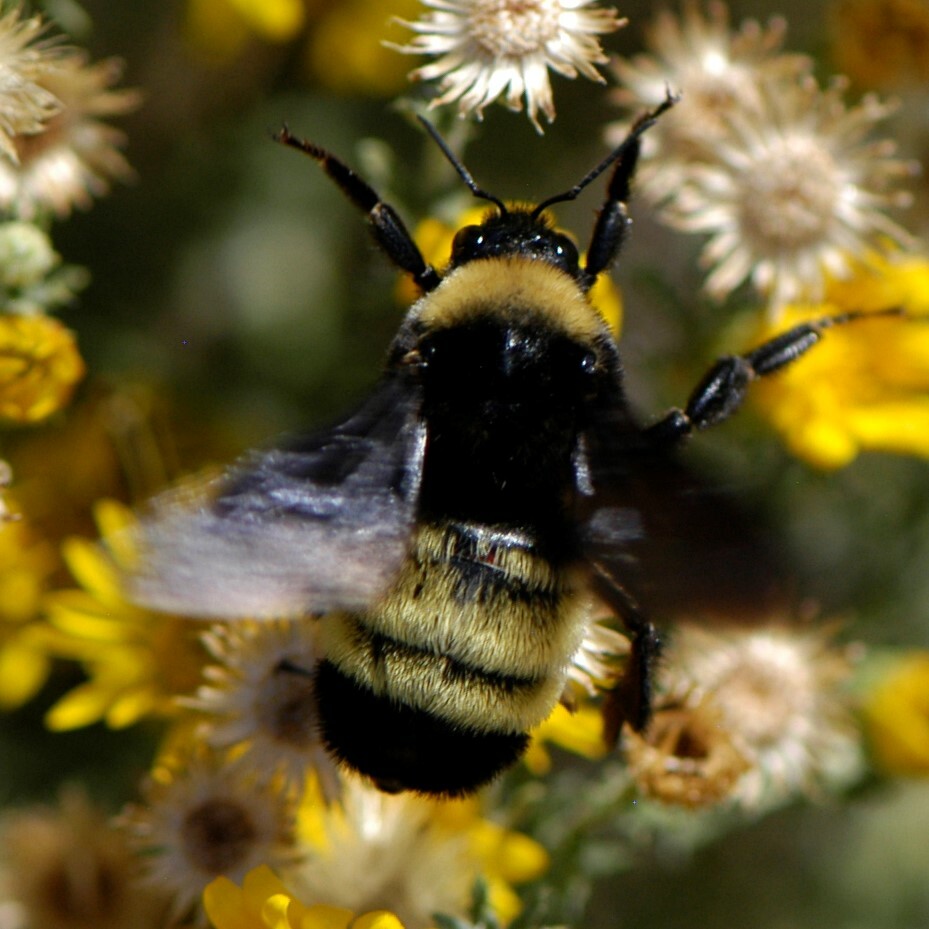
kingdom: Animalia
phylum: Arthropoda
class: Insecta
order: Hymenoptera
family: Apidae
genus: Bombus
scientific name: Bombus pensylvanicus
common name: Bumble bee
